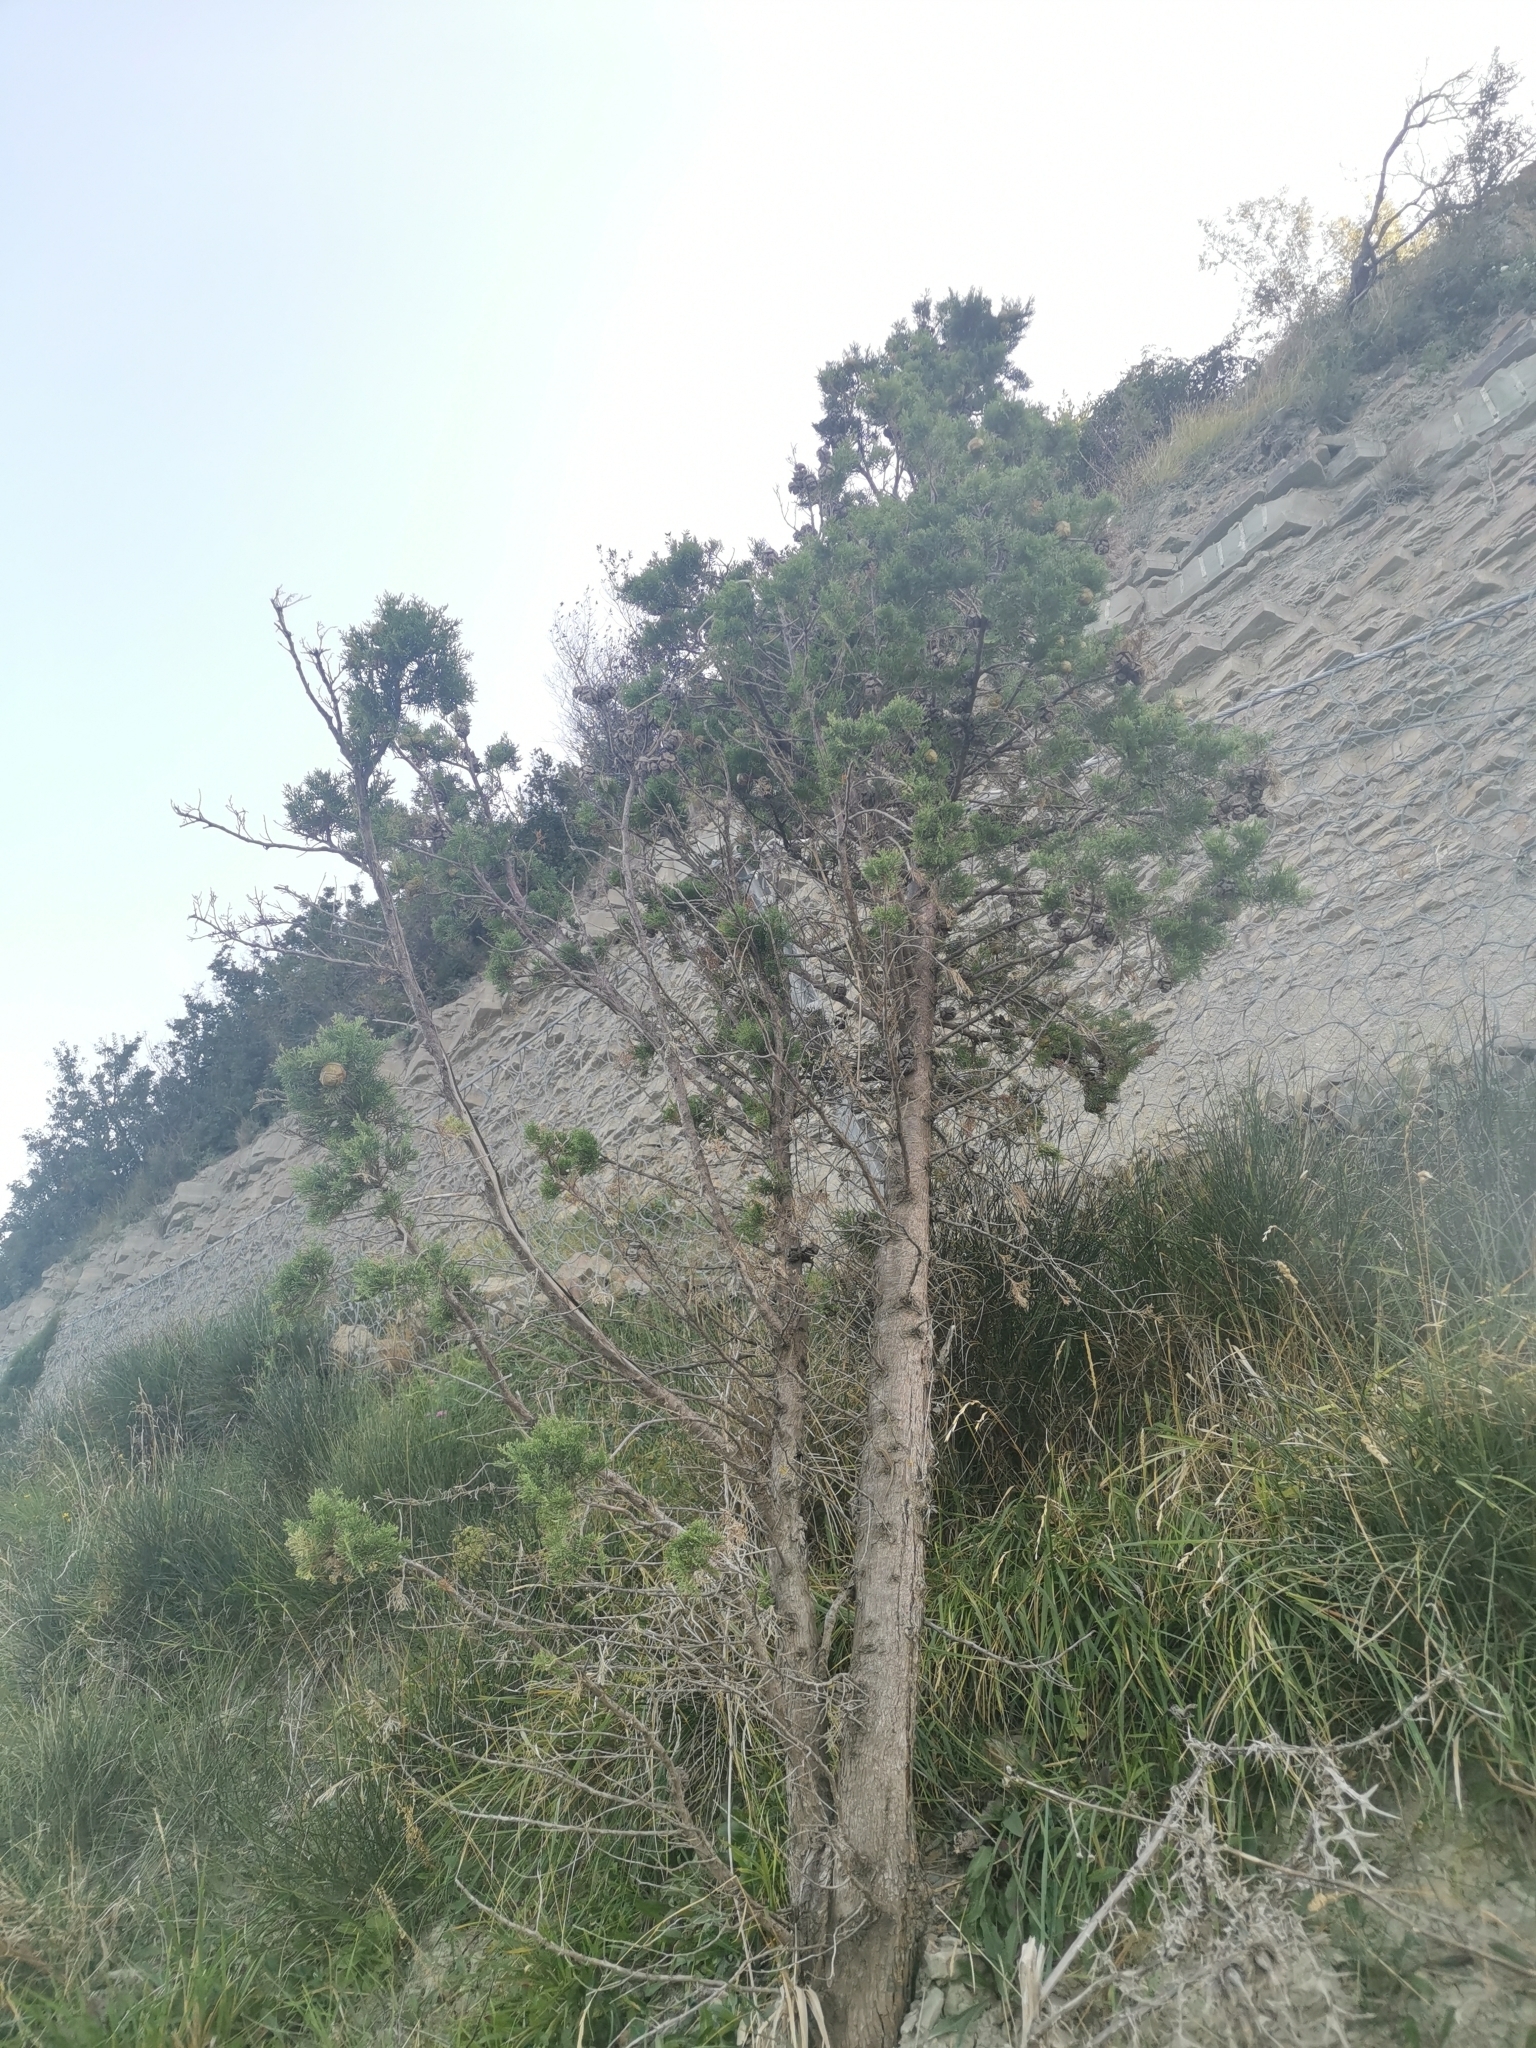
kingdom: Plantae
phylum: Tracheophyta
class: Pinopsida
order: Pinales
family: Cupressaceae
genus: Cupressus
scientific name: Cupressus sempervirens
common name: Italian cypress
